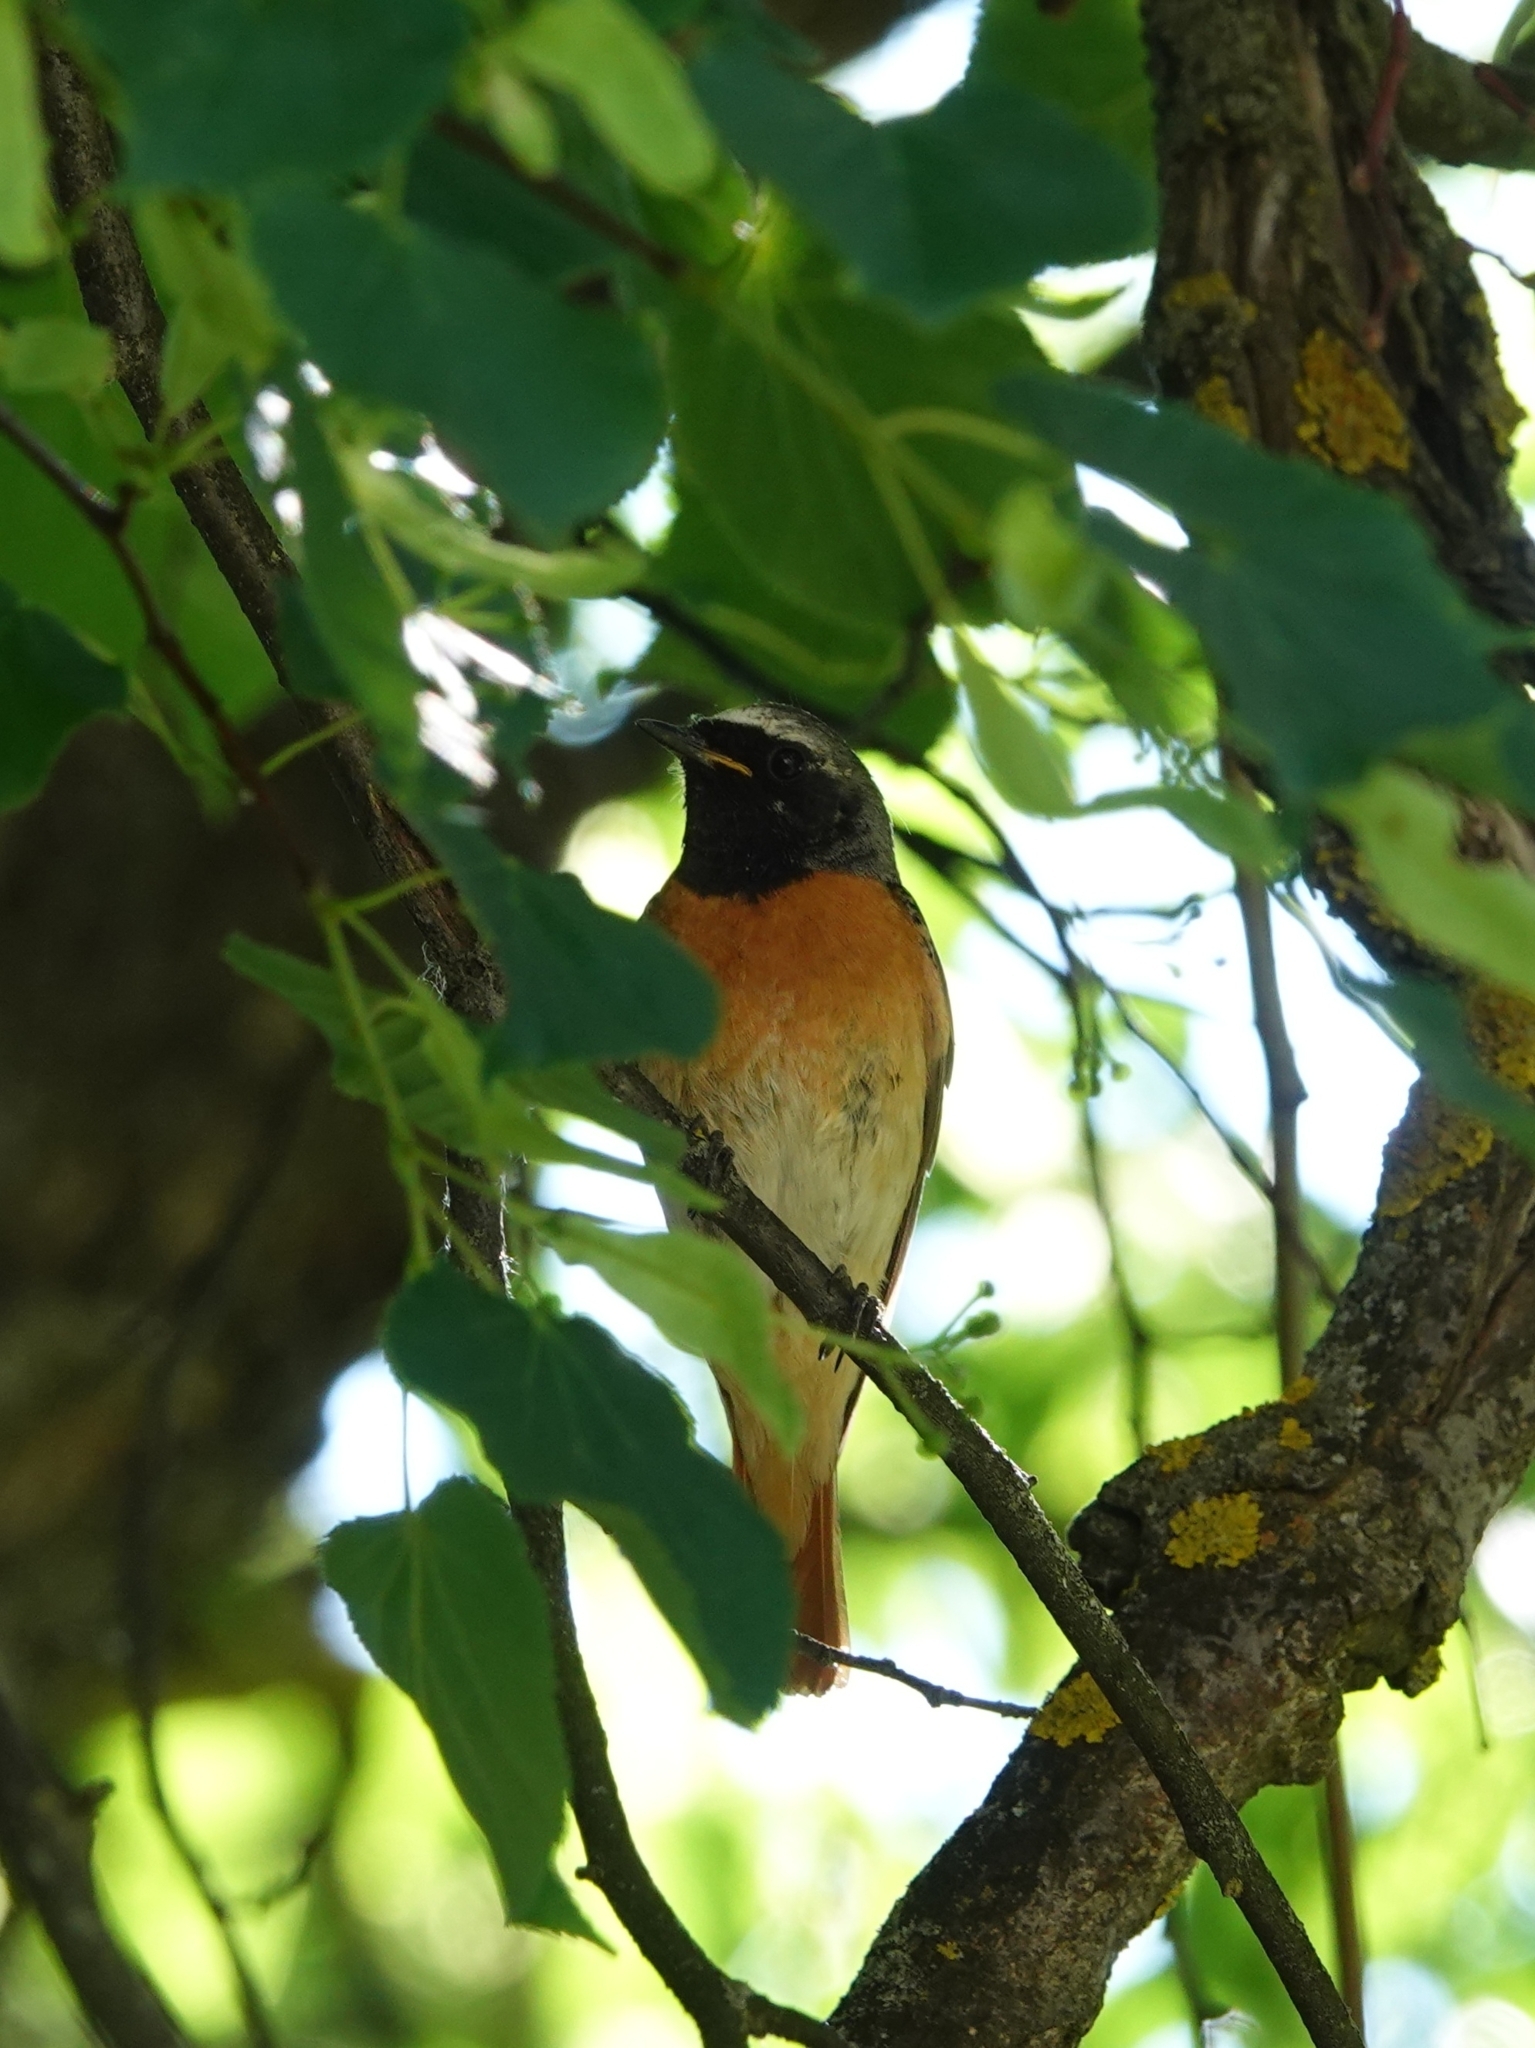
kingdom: Animalia
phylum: Chordata
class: Aves
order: Passeriformes
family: Muscicapidae
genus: Phoenicurus
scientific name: Phoenicurus phoenicurus
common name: Common redstart
